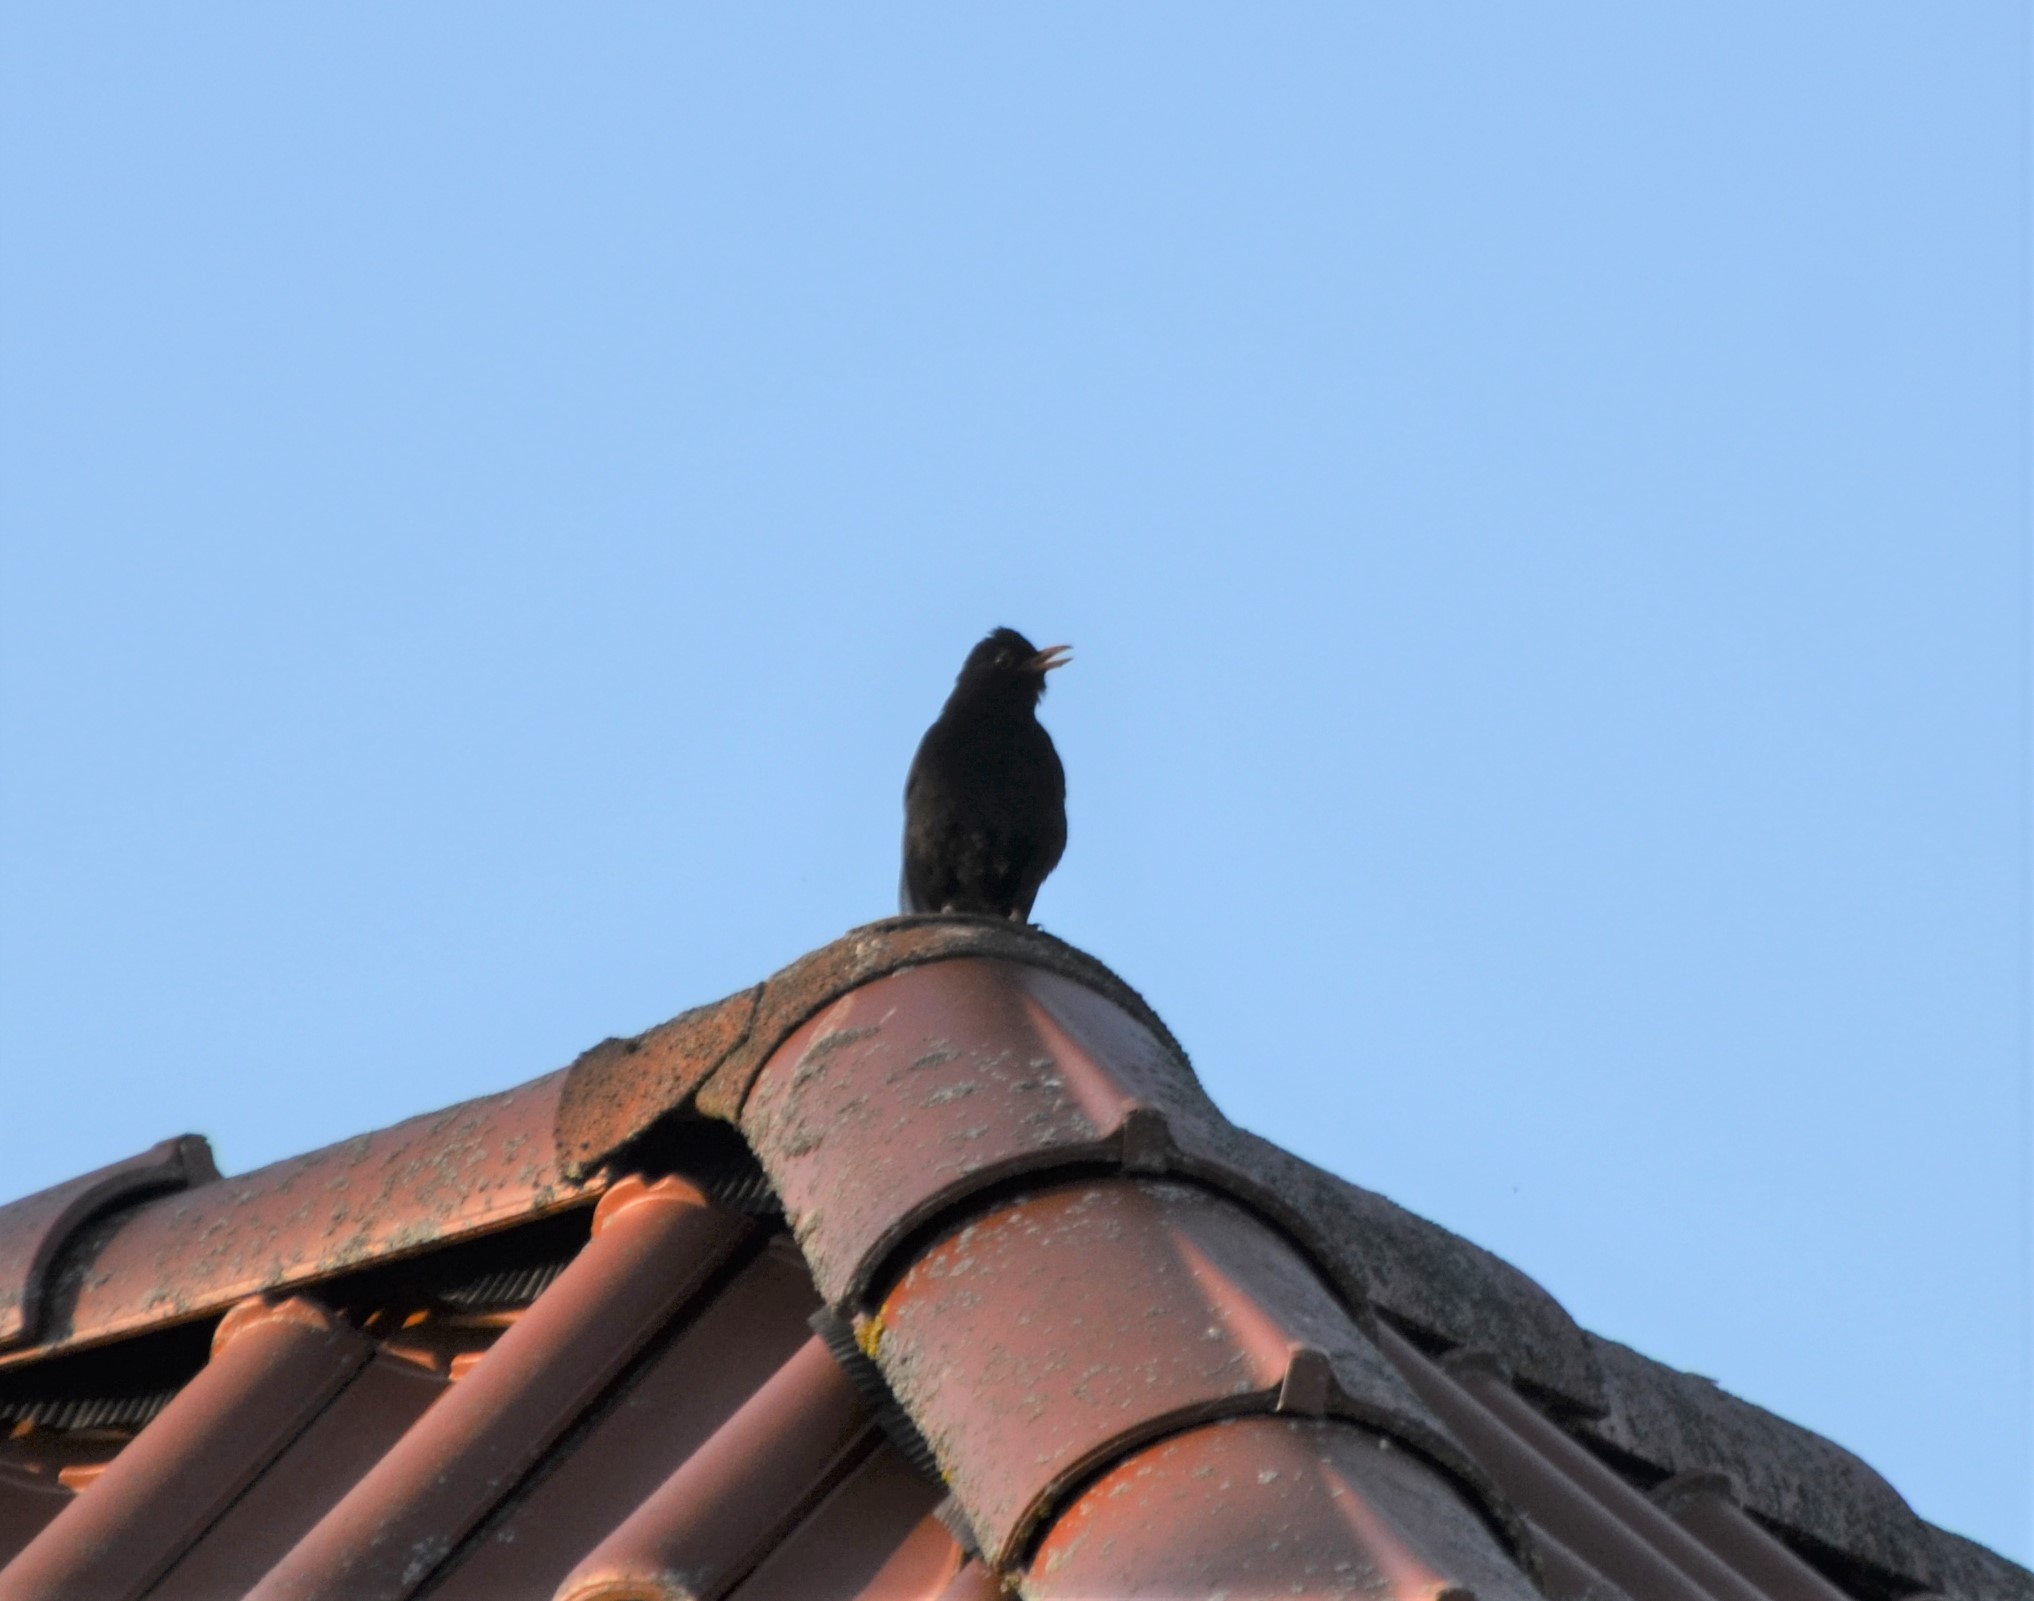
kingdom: Animalia
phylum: Chordata
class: Aves
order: Passeriformes
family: Turdidae
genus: Turdus
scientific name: Turdus merula
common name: Common blackbird
